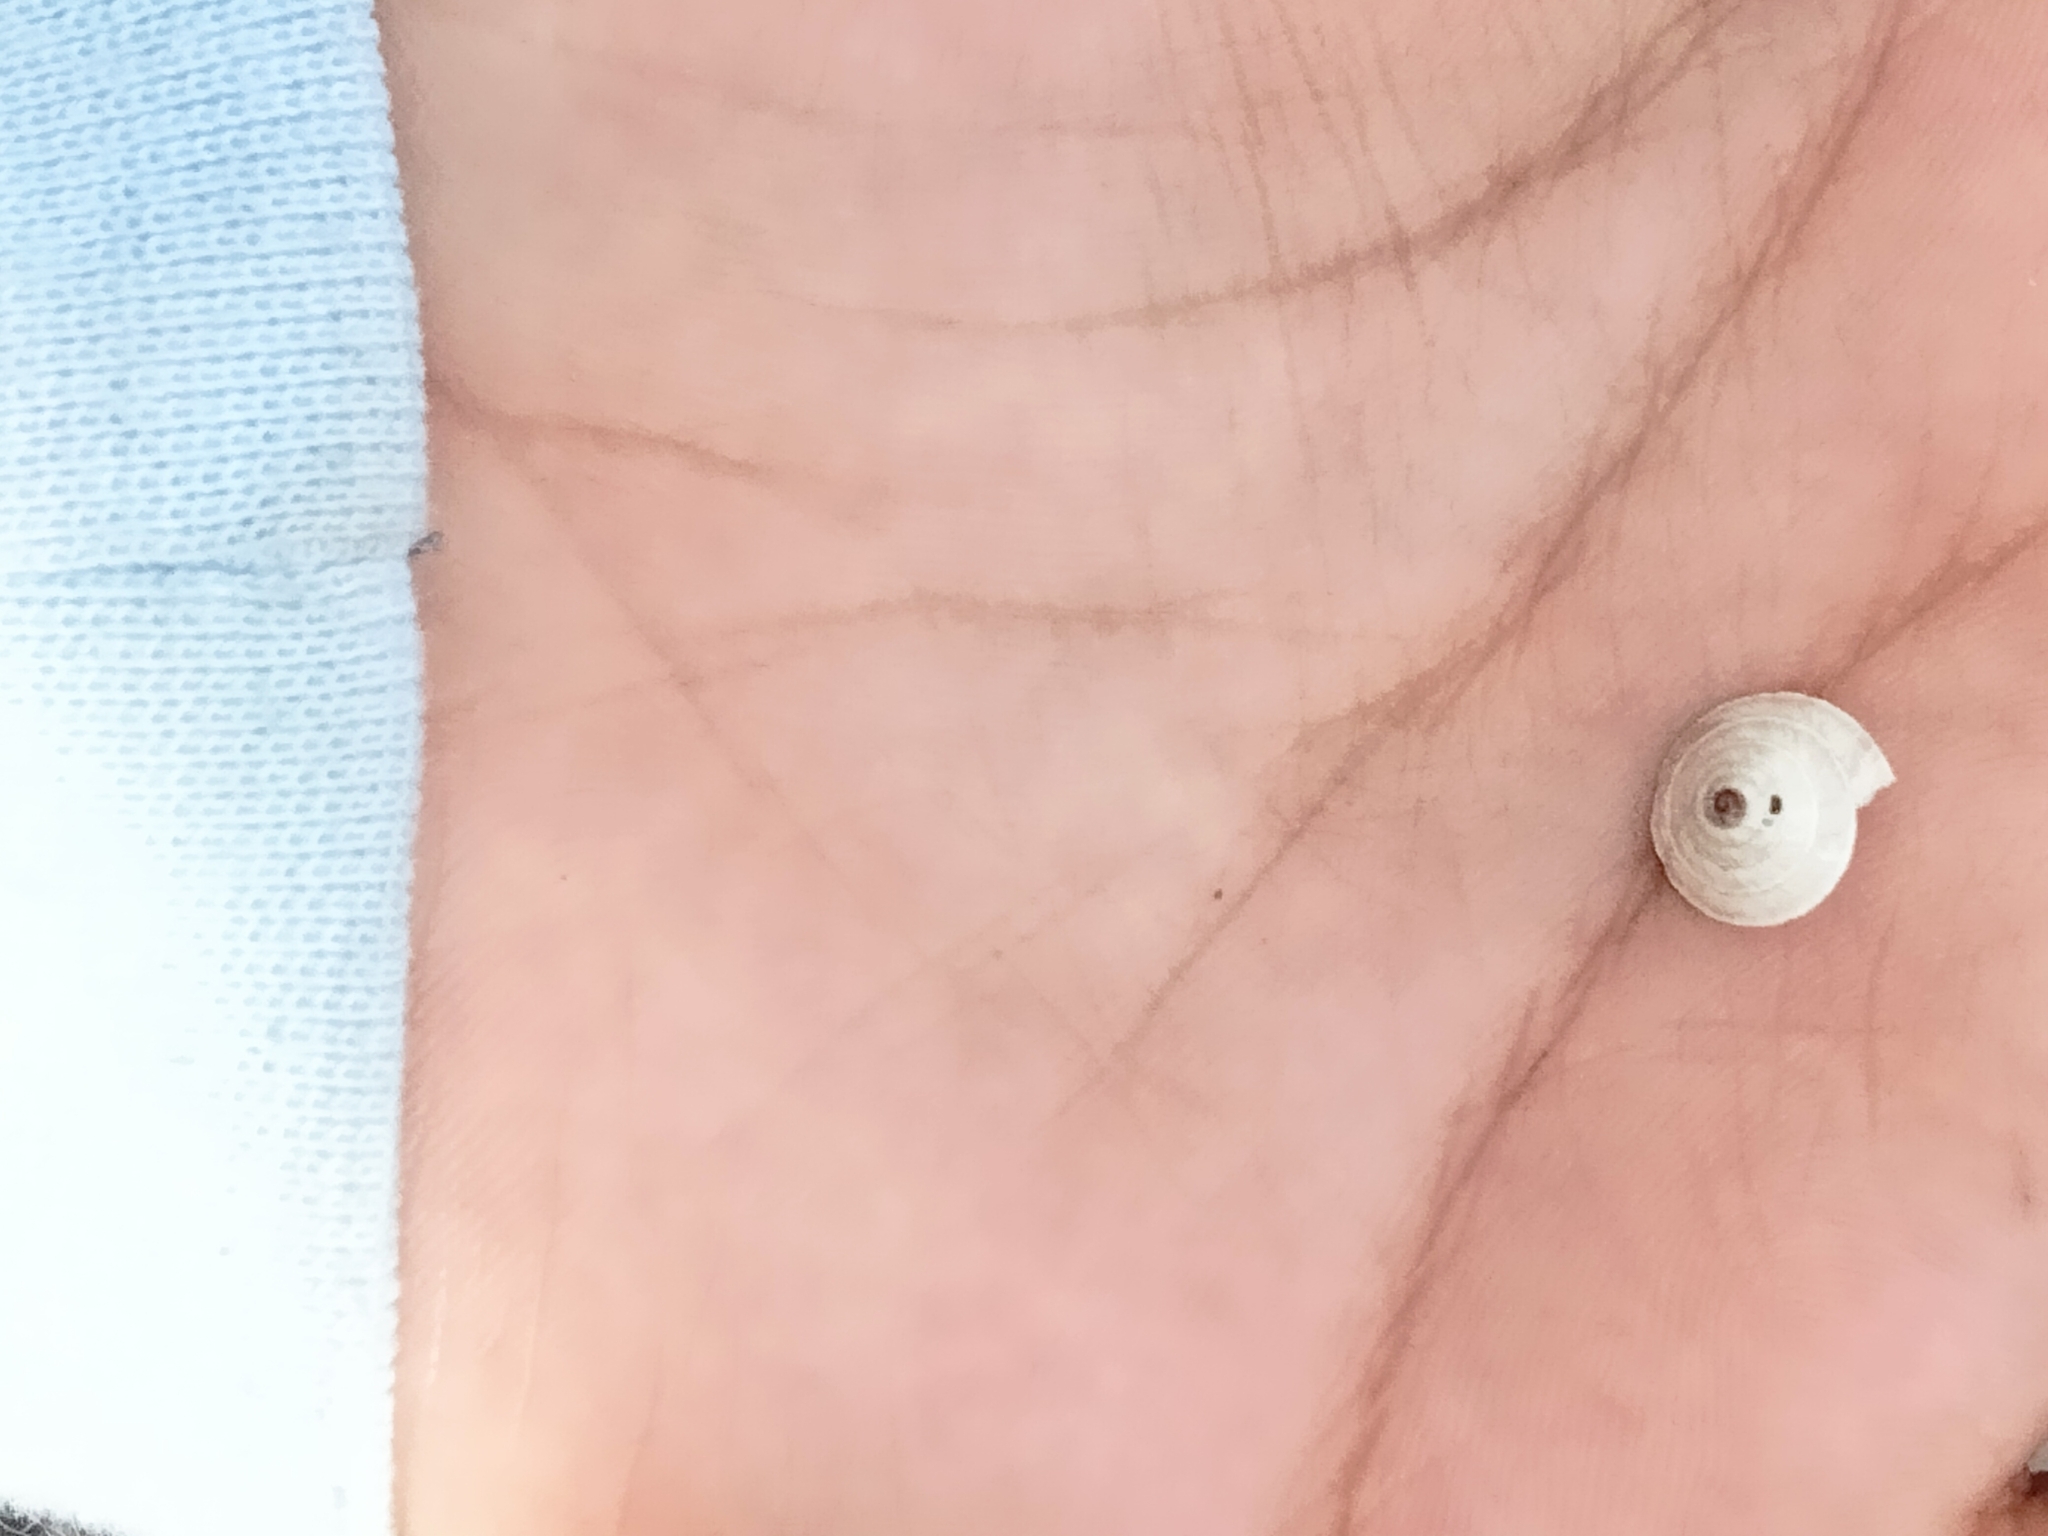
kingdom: Animalia
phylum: Mollusca
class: Gastropoda
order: Stylommatophora
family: Geomitridae
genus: Trochoidea
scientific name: Trochoidea elegans
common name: Elegant helicellid
